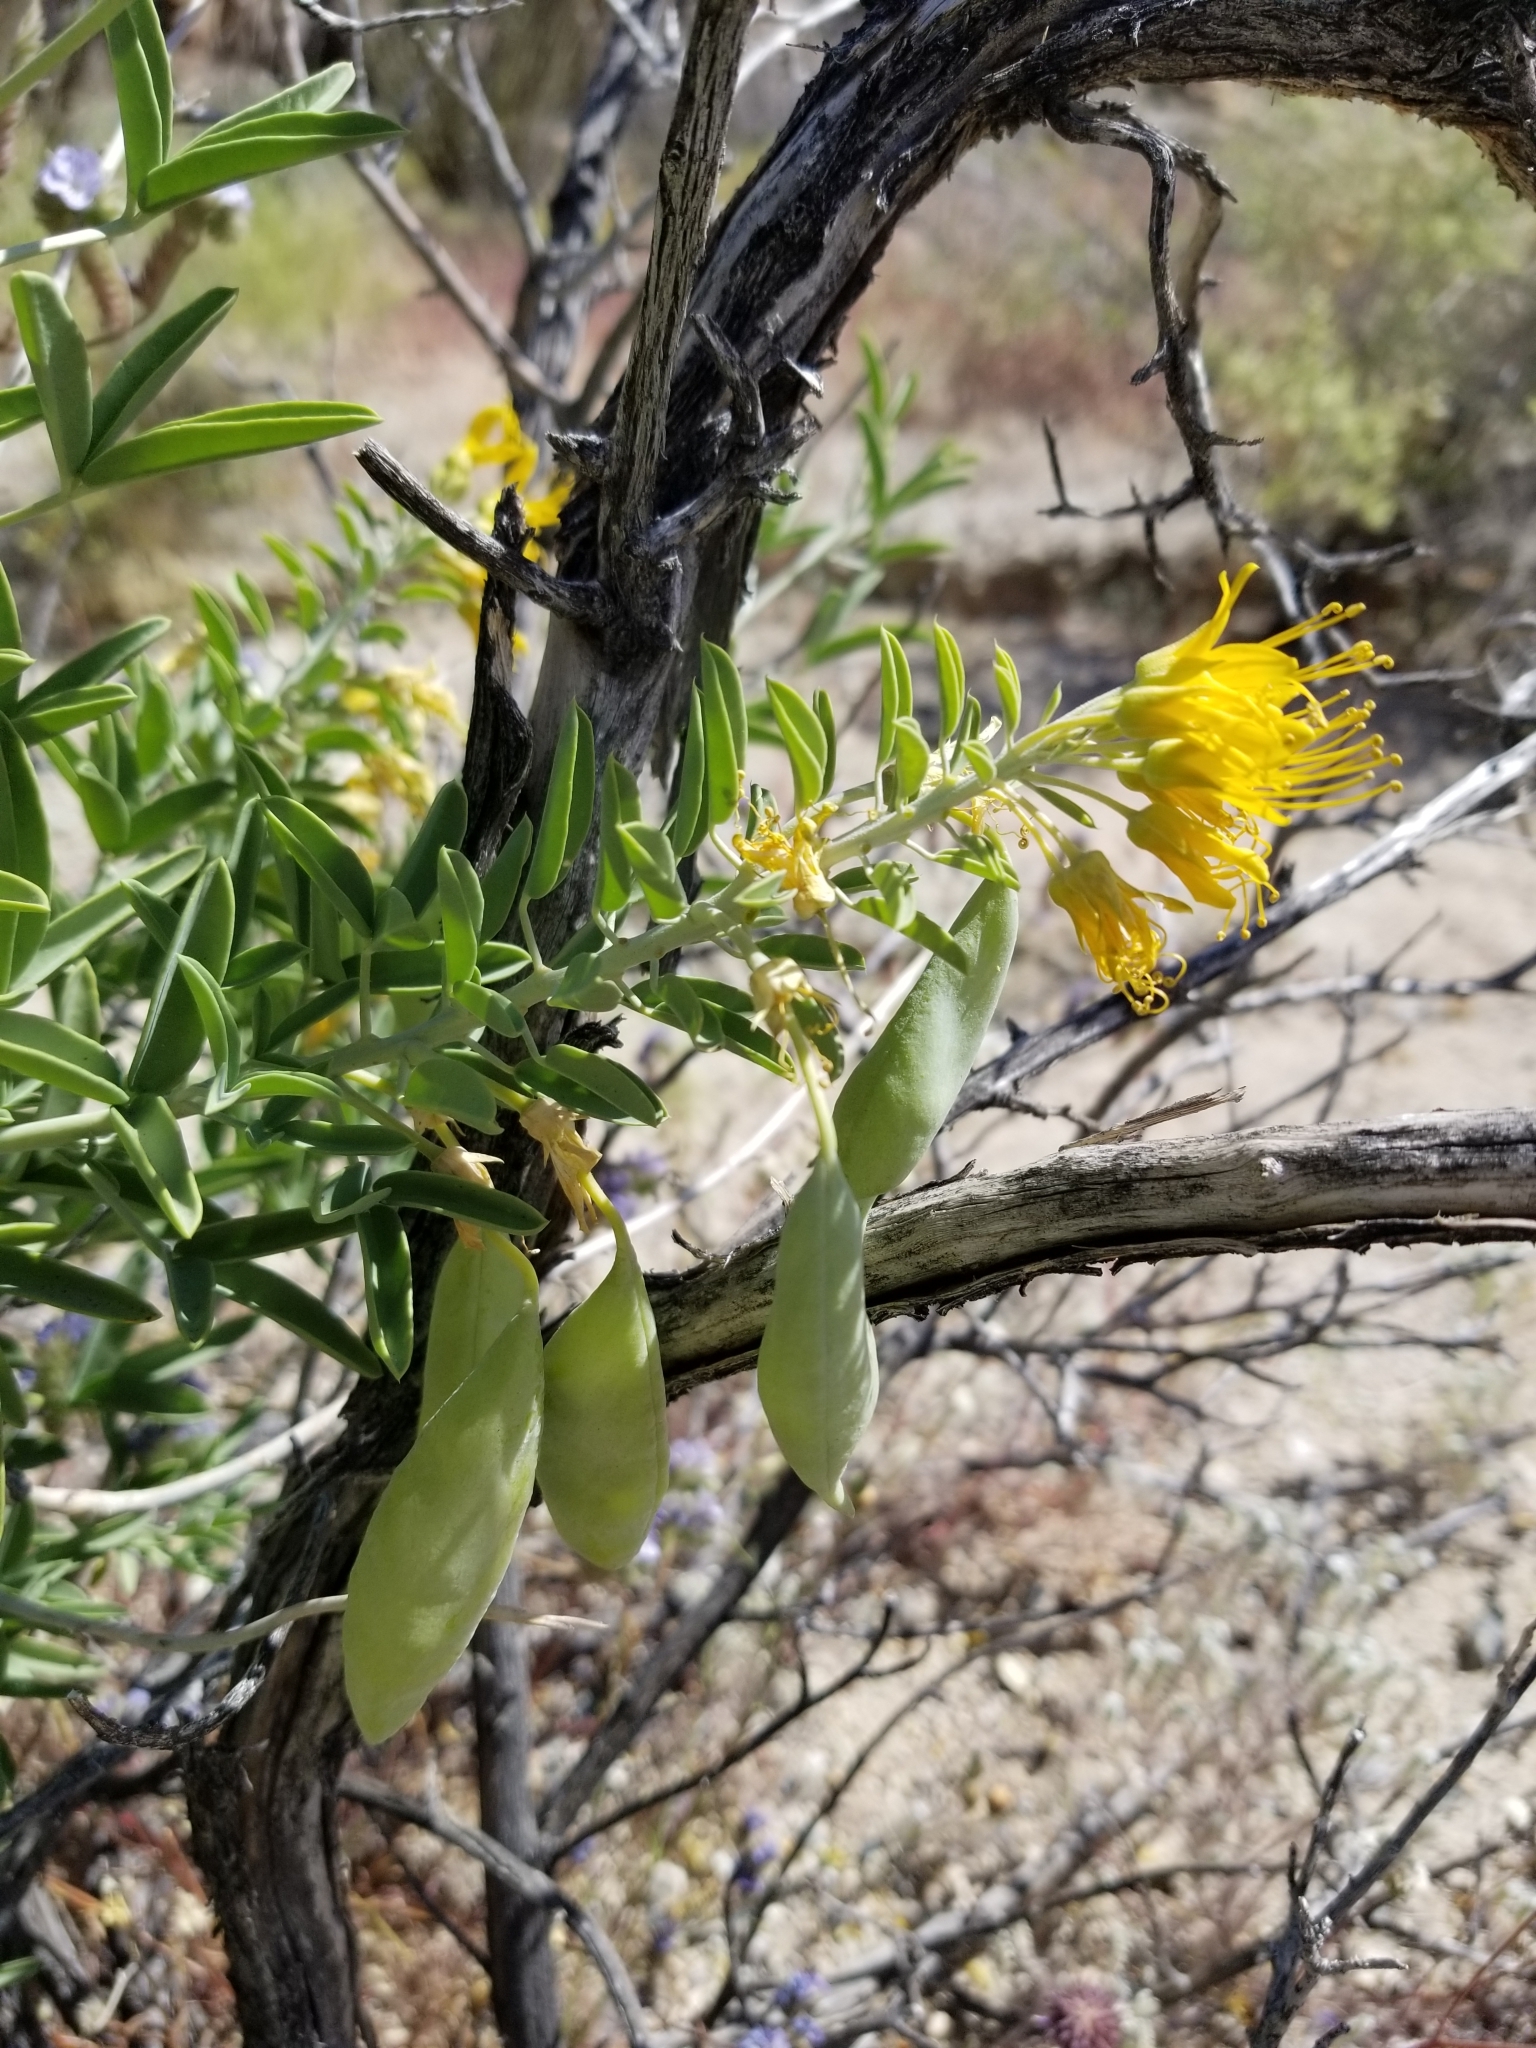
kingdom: Plantae
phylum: Tracheophyta
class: Magnoliopsida
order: Brassicales
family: Cleomaceae
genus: Cleomella
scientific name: Cleomella arborea
